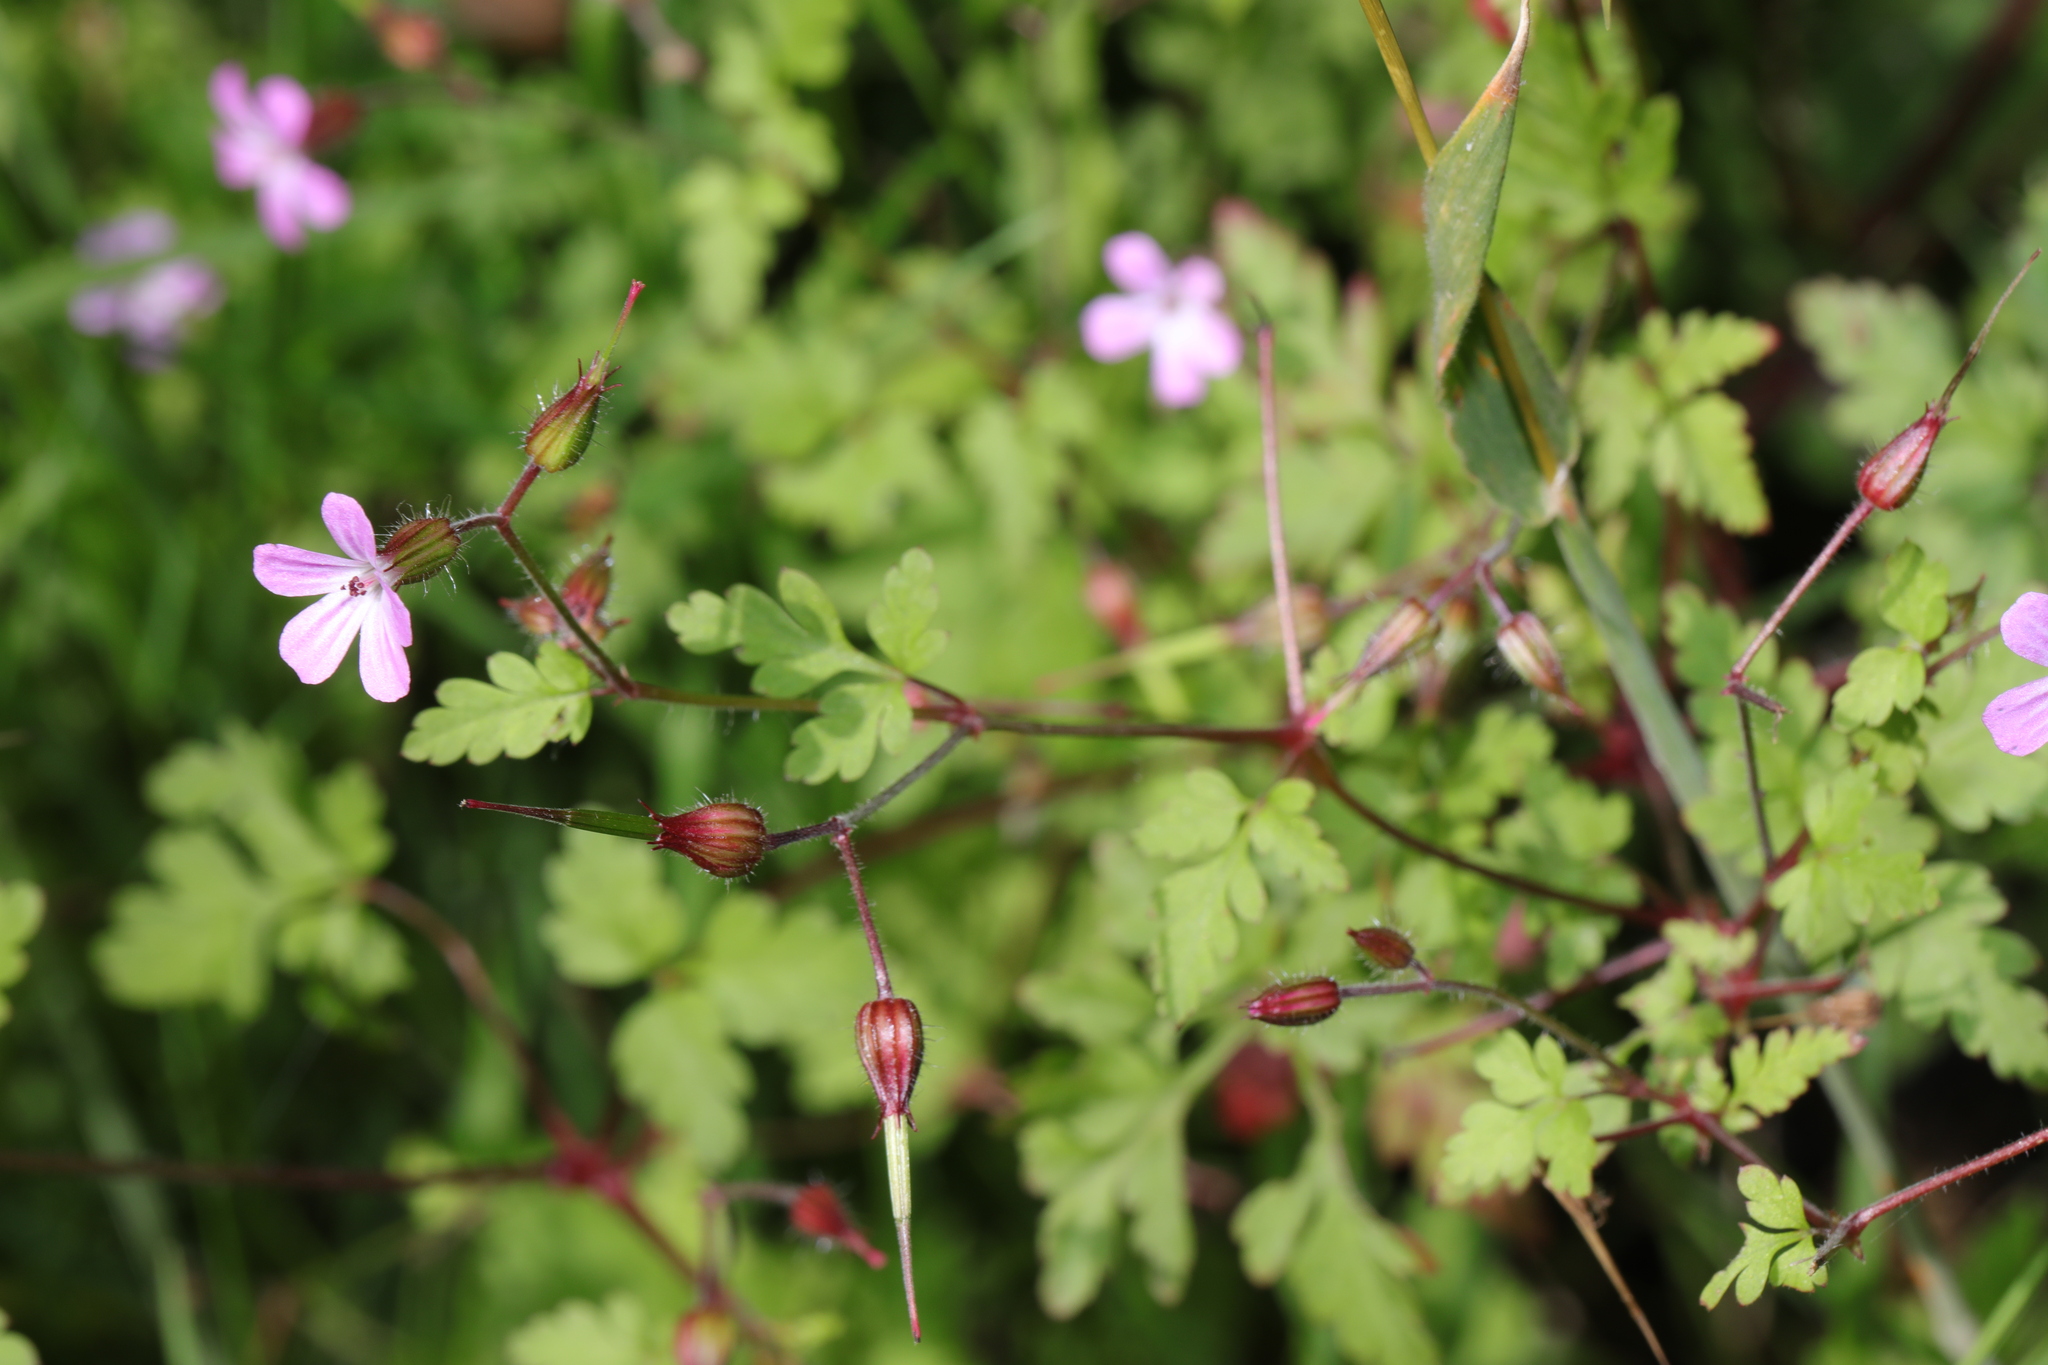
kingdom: Plantae
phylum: Tracheophyta
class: Magnoliopsida
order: Geraniales
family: Geraniaceae
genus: Geranium
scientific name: Geranium robertianum
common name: Herb-robert
